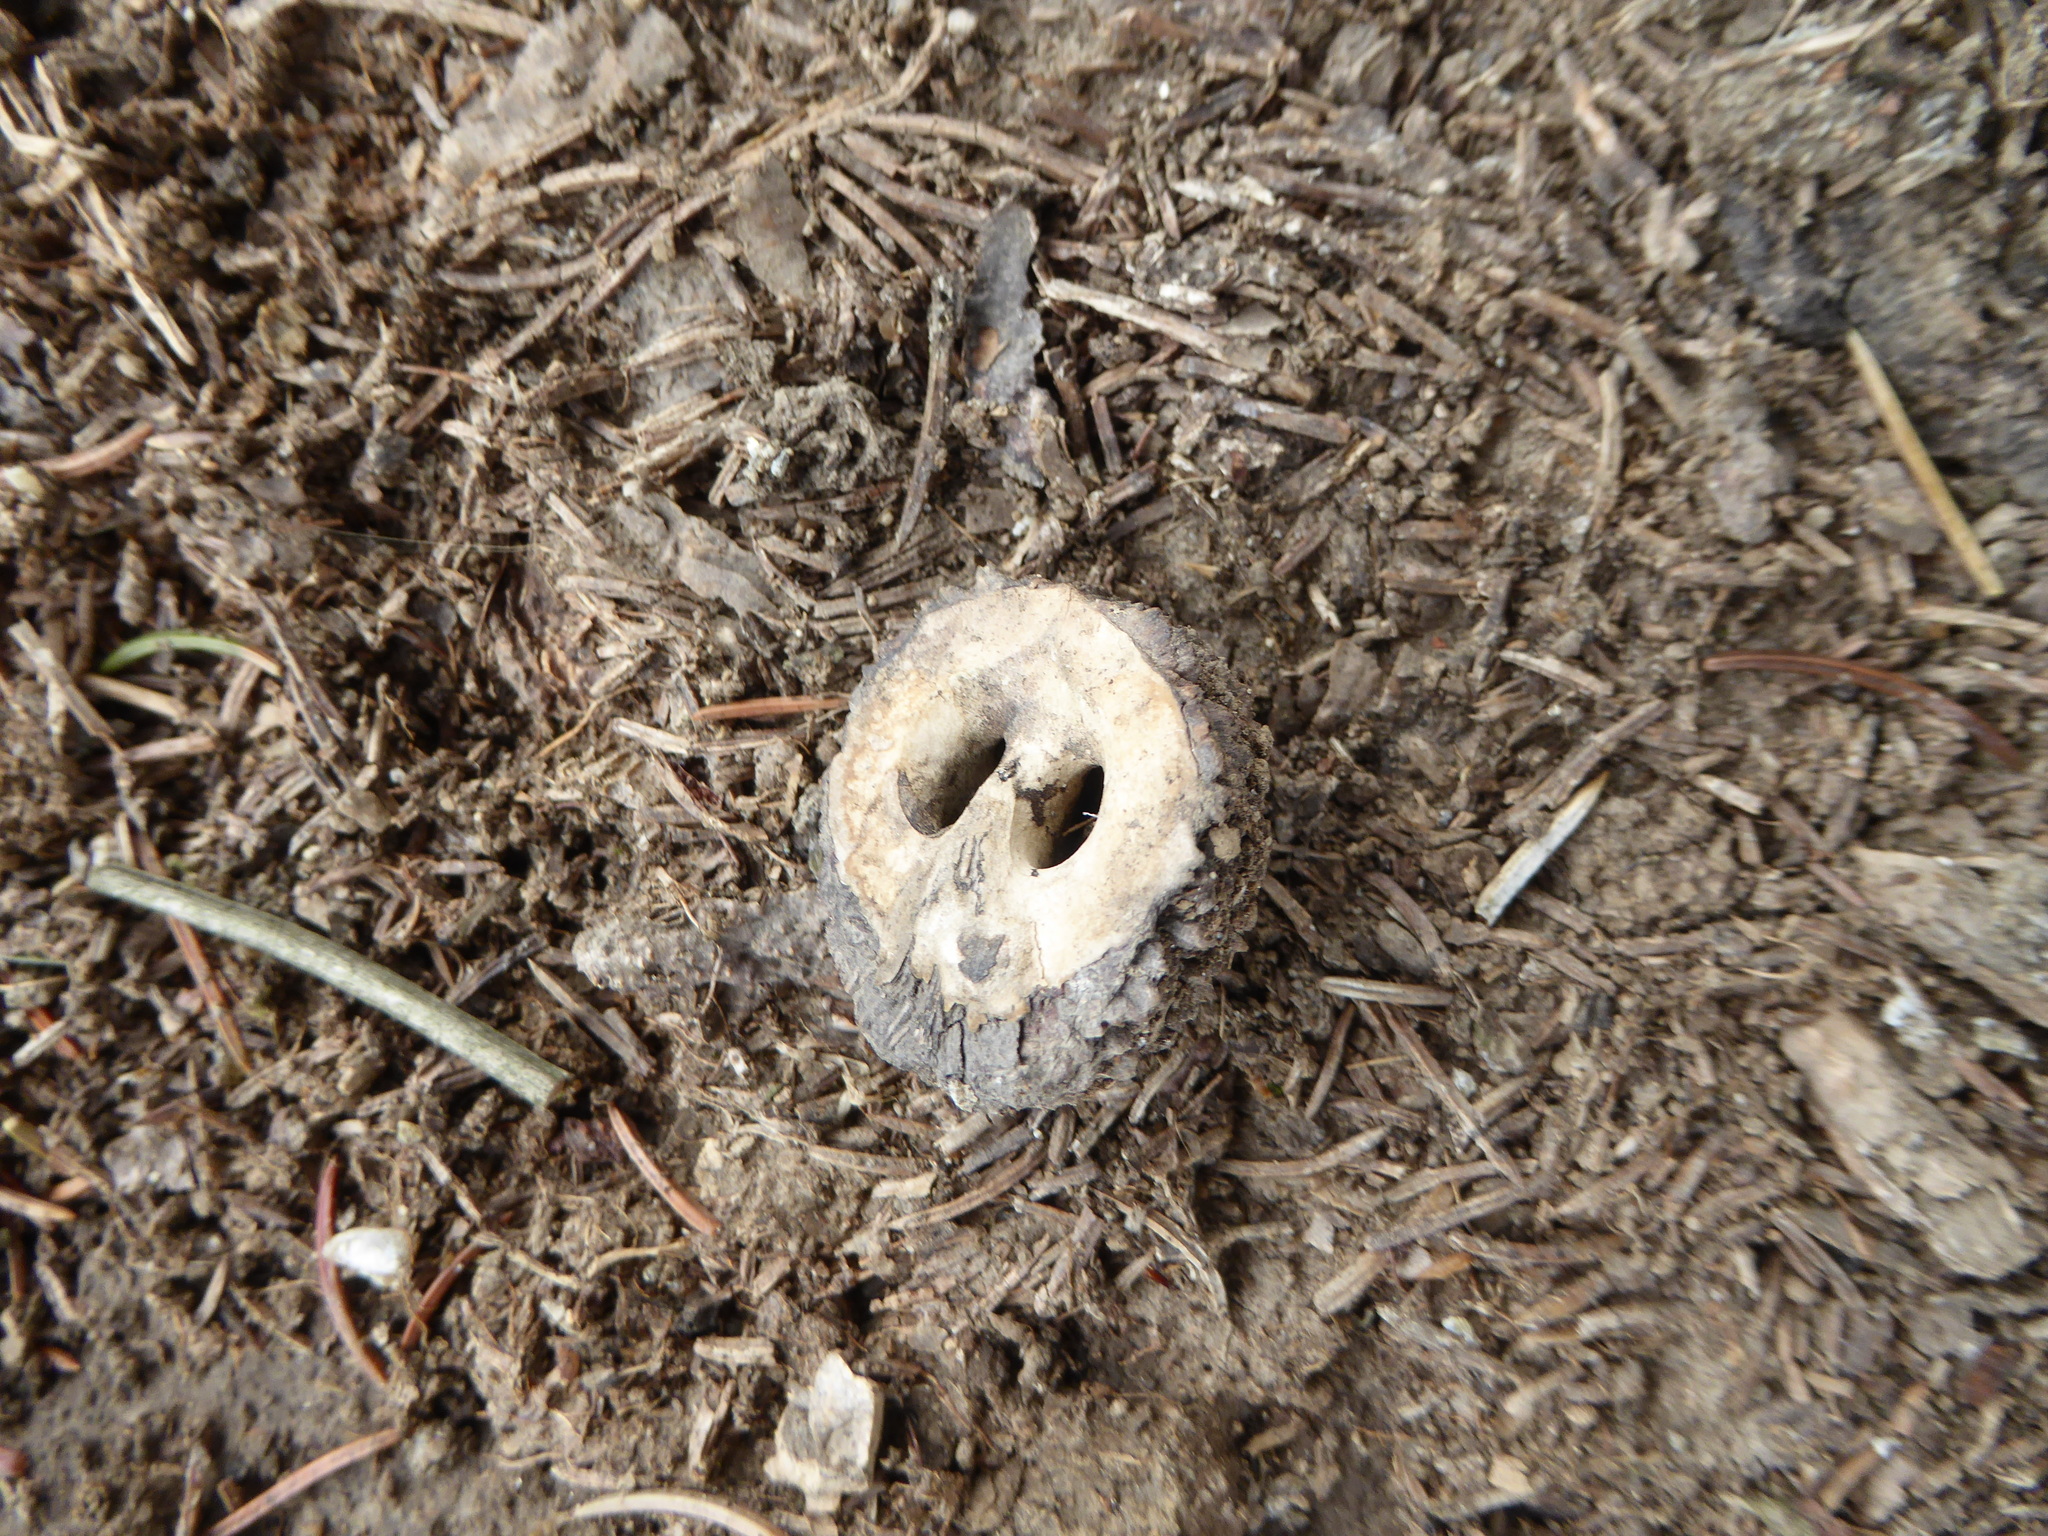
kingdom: Plantae
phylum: Tracheophyta
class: Magnoliopsida
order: Fagales
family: Juglandaceae
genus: Juglans
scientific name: Juglans nigra
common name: Black walnut
